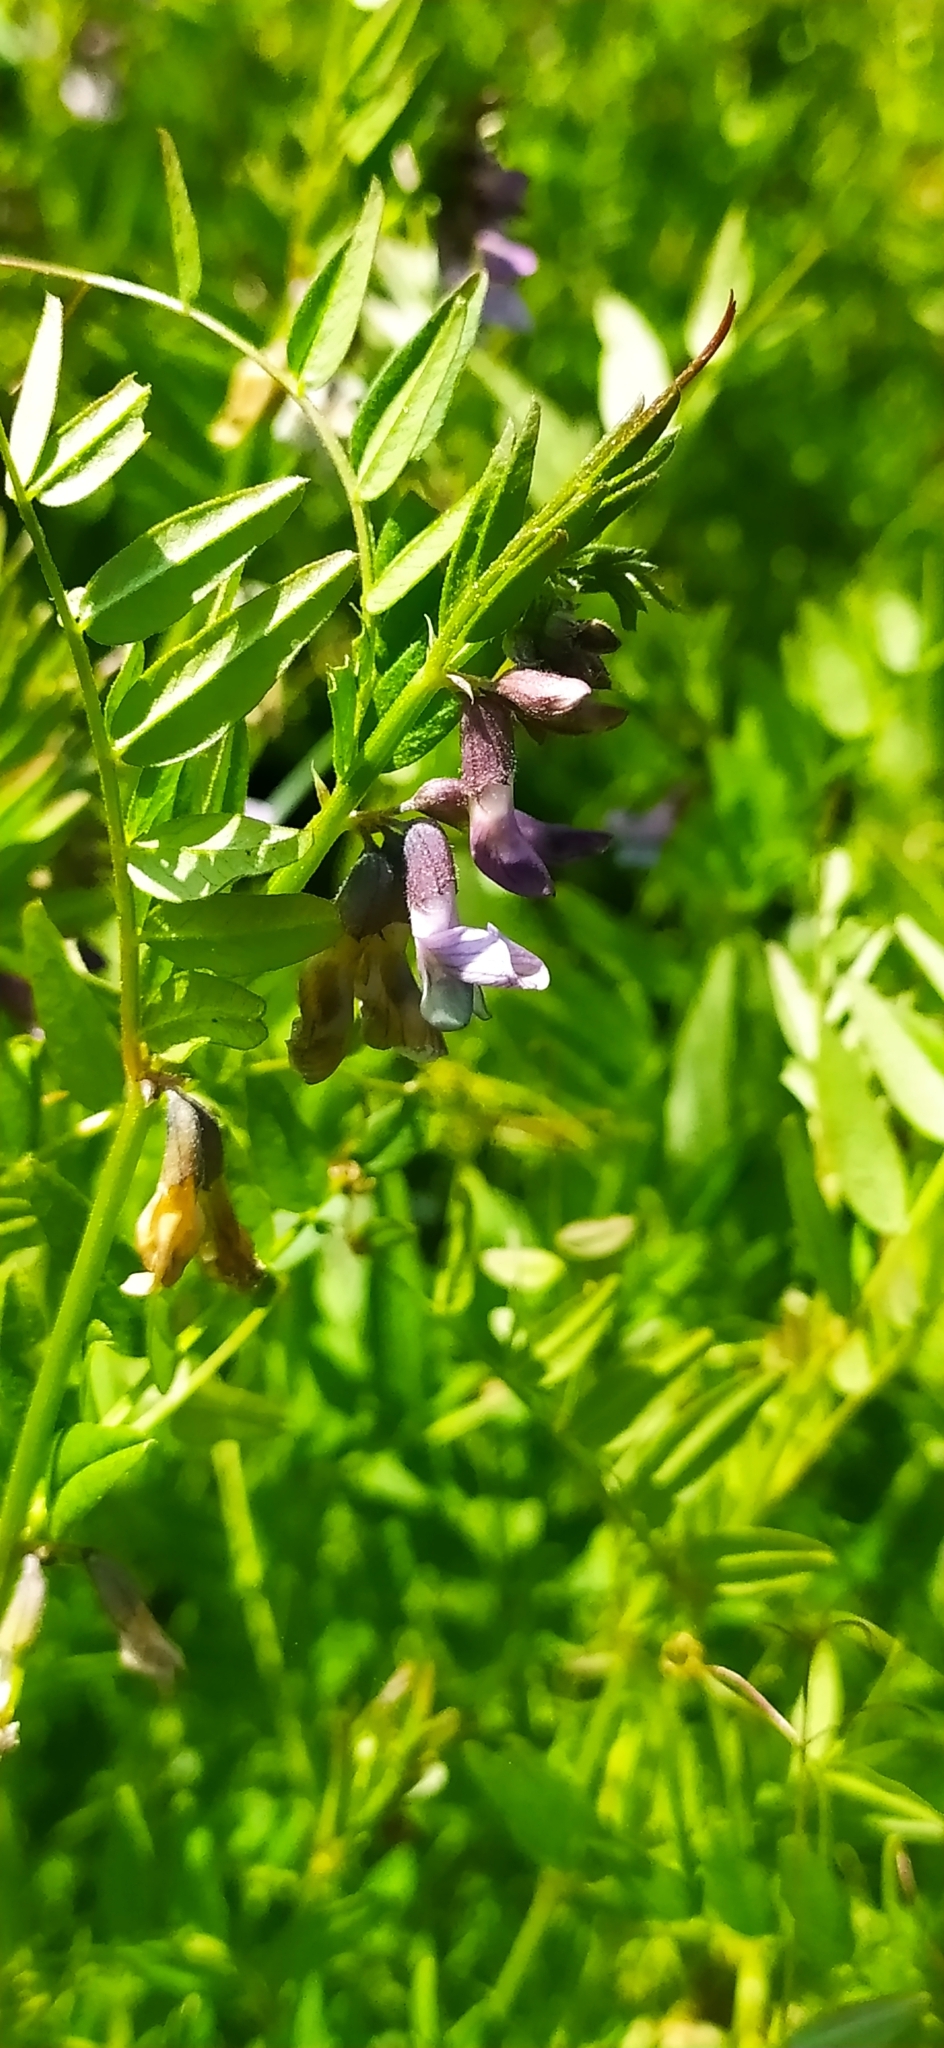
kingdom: Plantae
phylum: Tracheophyta
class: Magnoliopsida
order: Fabales
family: Fabaceae
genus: Vicia
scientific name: Vicia sepium
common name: Bush vetch
